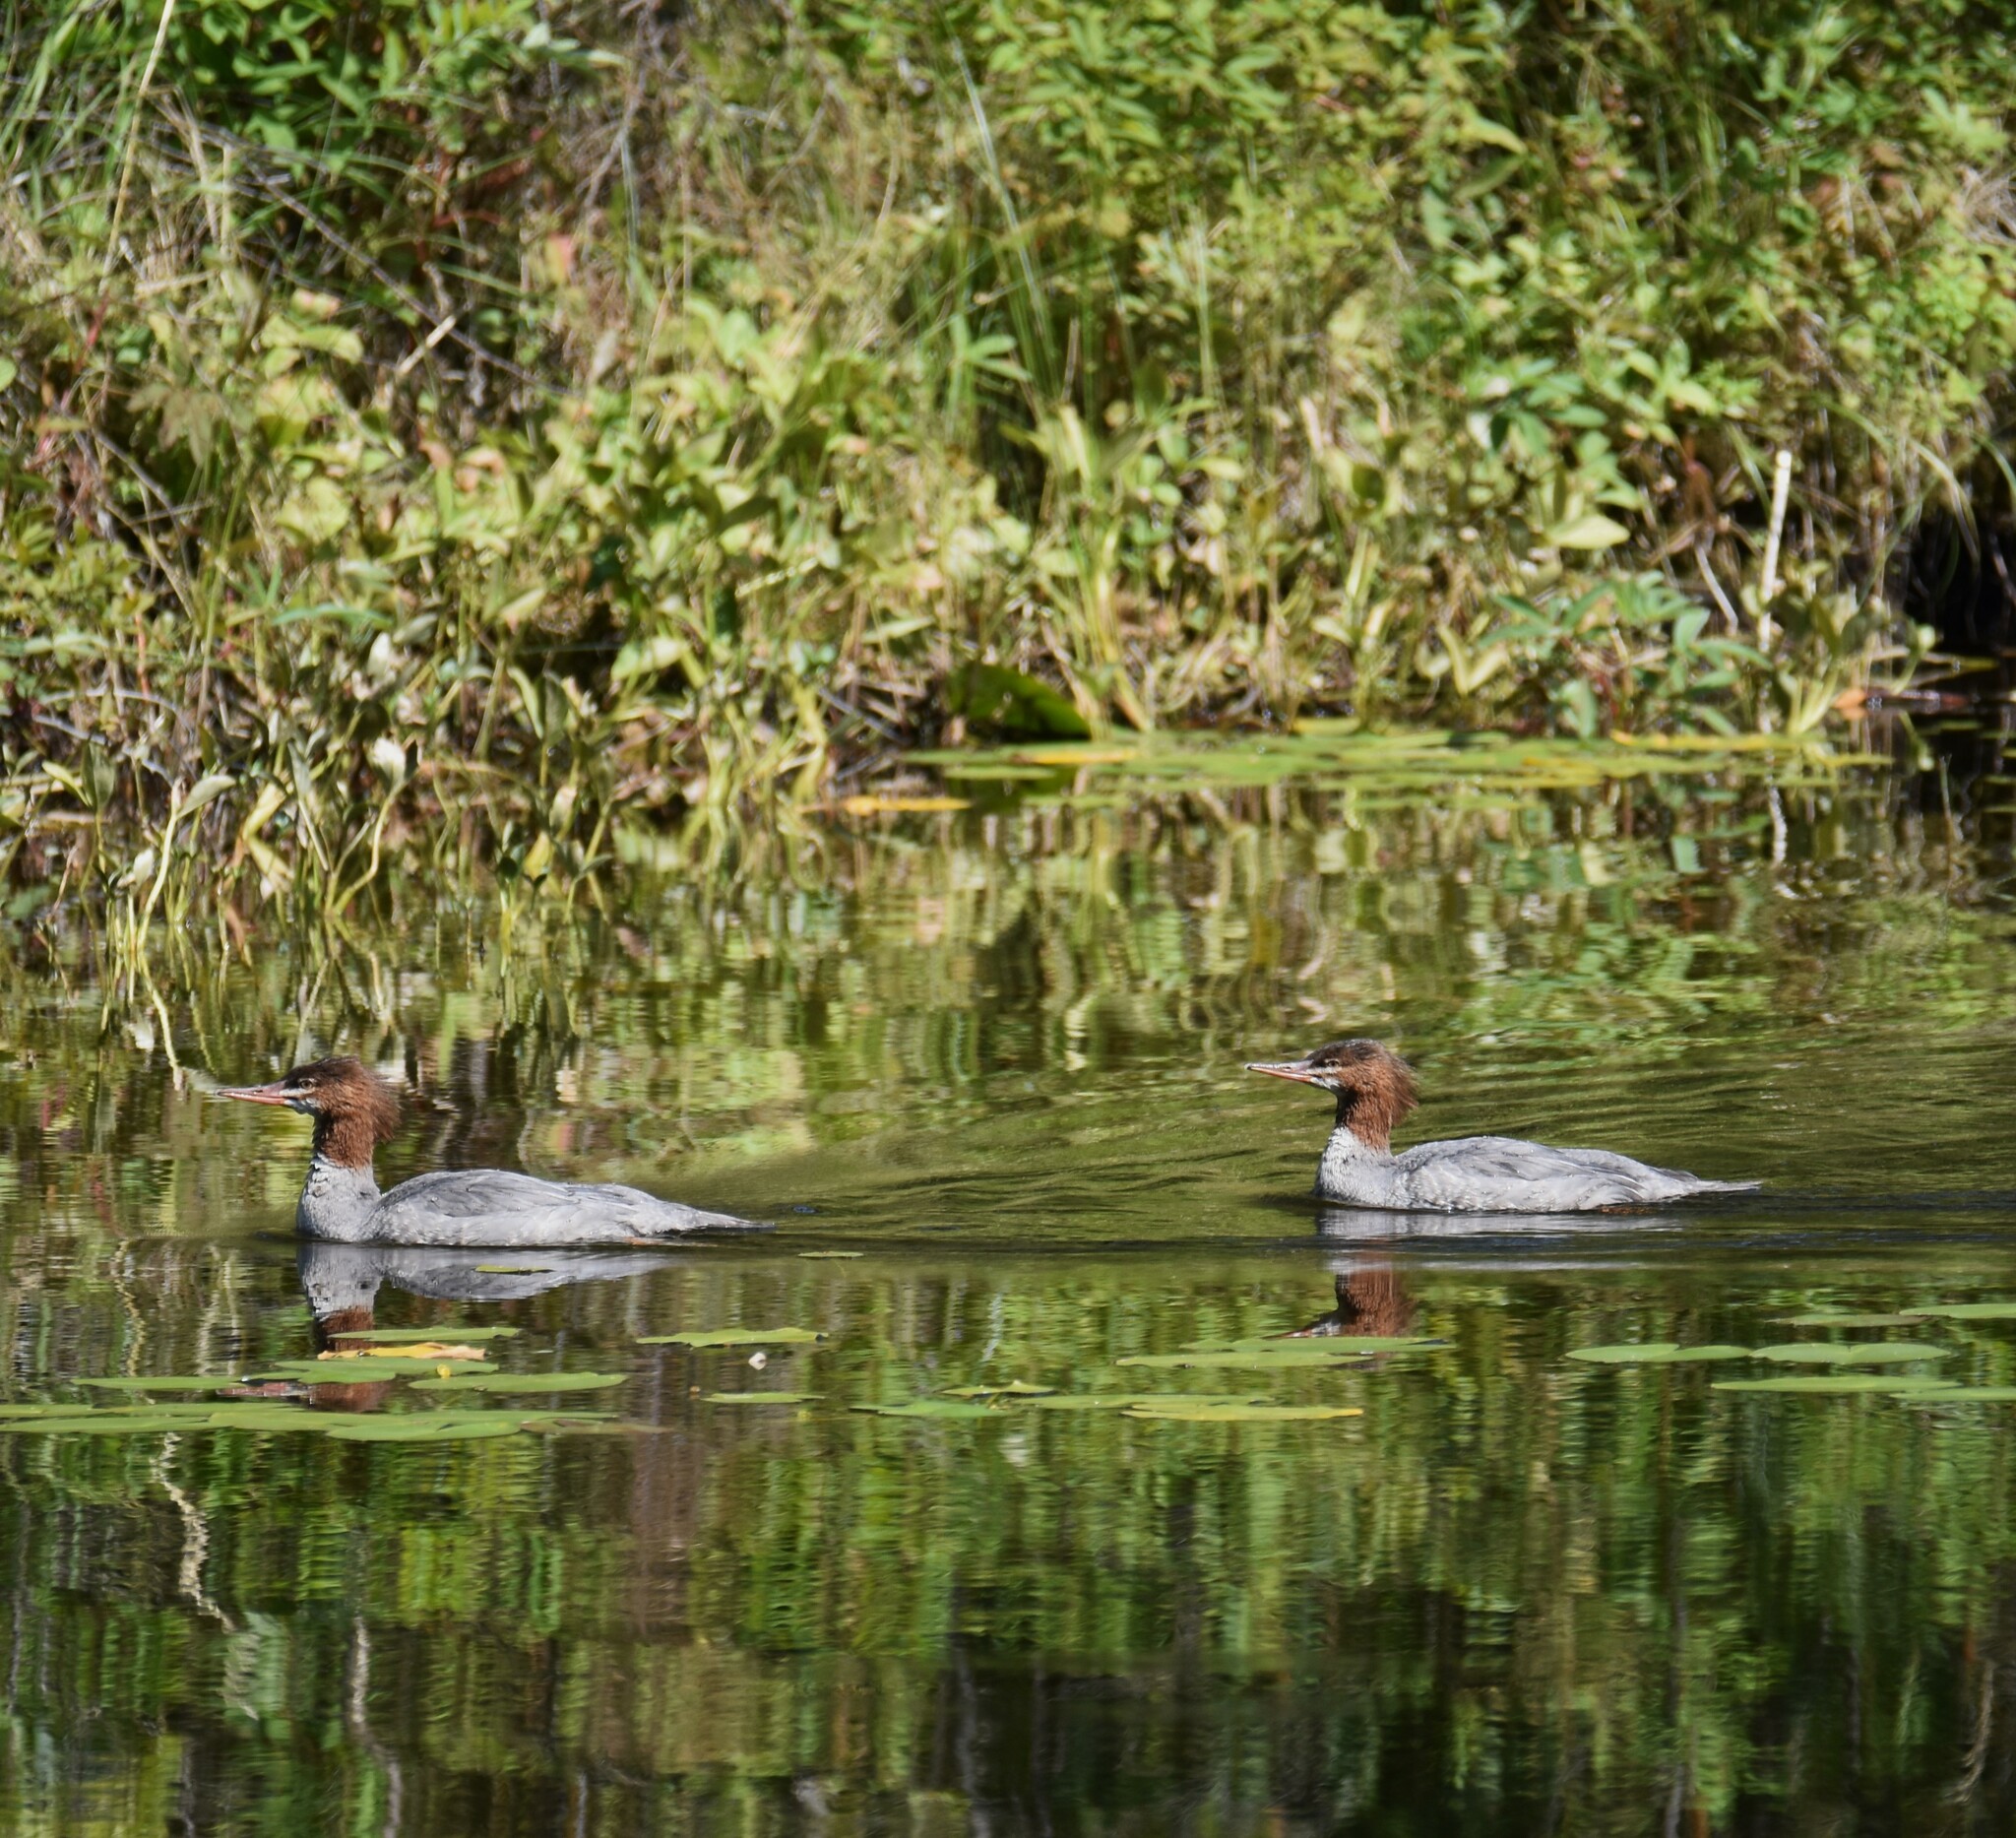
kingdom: Animalia
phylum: Chordata
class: Aves
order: Anseriformes
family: Anatidae
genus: Mergus
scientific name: Mergus merganser
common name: Common merganser
